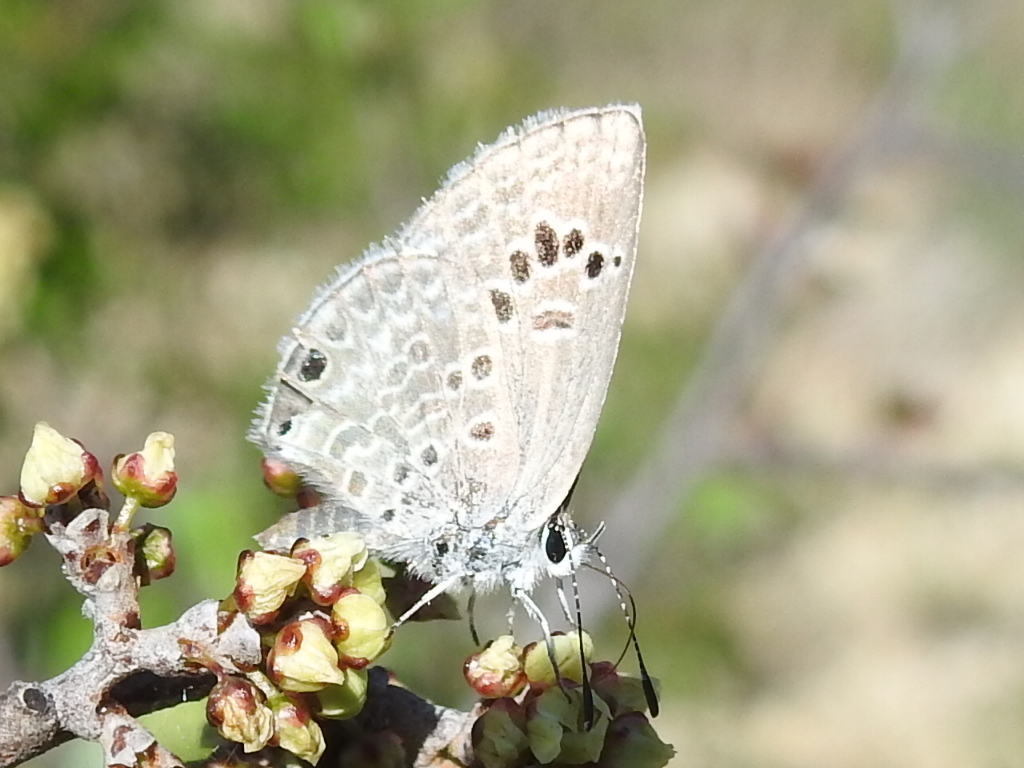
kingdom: Animalia
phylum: Arthropoda
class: Insecta
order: Lepidoptera
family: Lycaenidae
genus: Echinargus
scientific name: Echinargus isola
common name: Reakirt's blue
